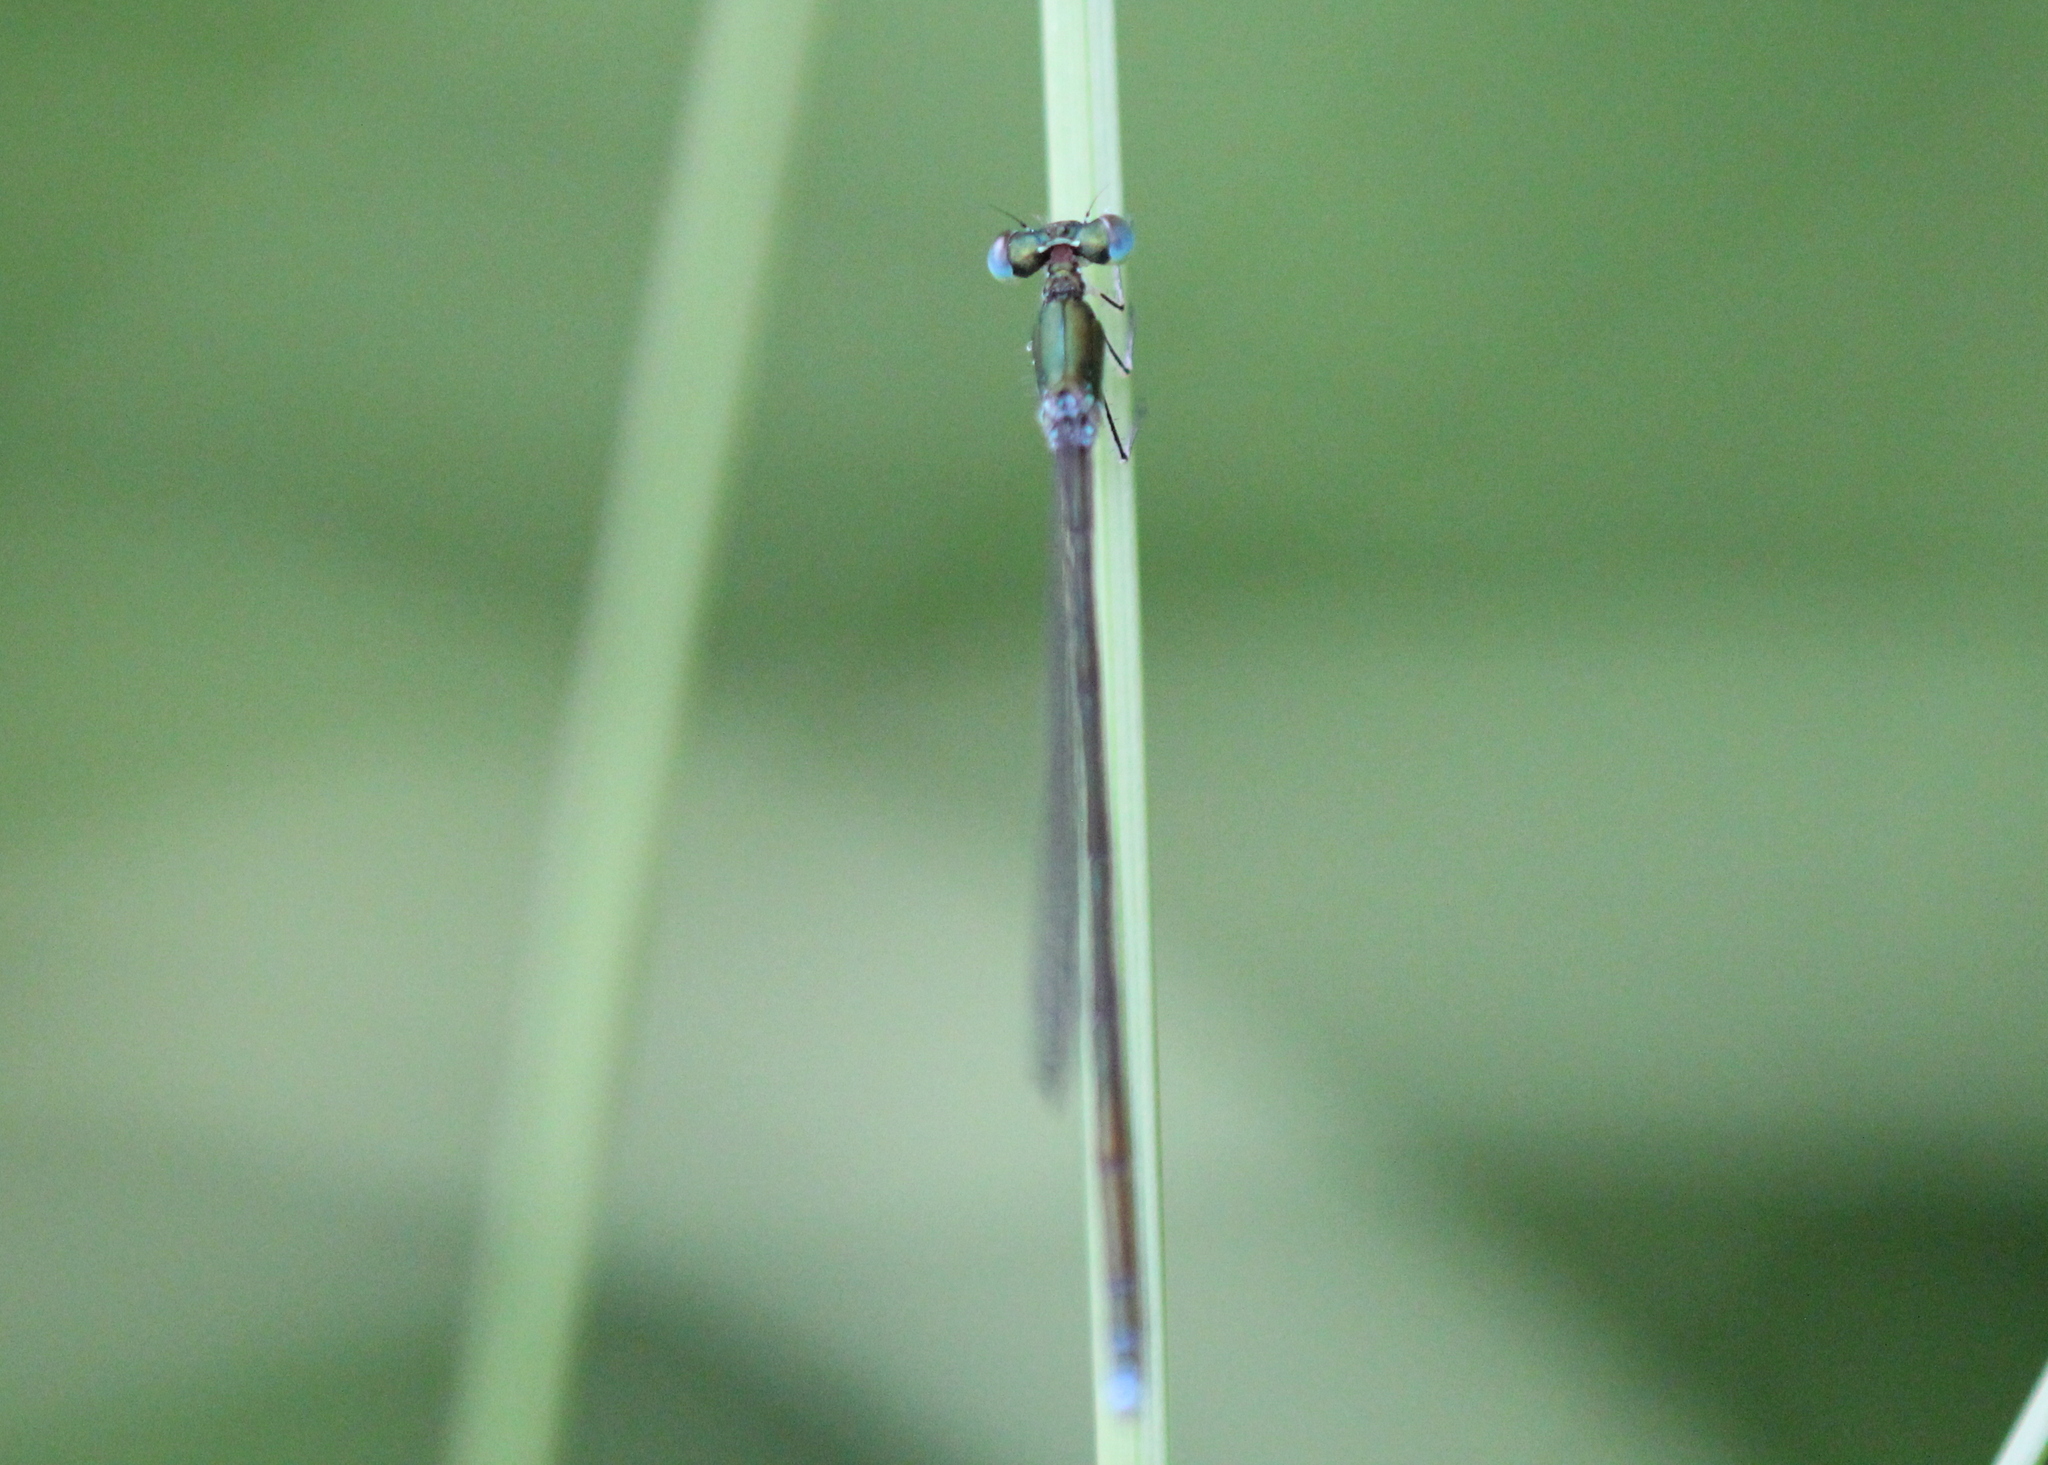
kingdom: Animalia
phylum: Arthropoda
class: Insecta
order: Odonata
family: Coenagrionidae
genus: Nehalennia
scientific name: Nehalennia irene
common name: Sedge sprite
